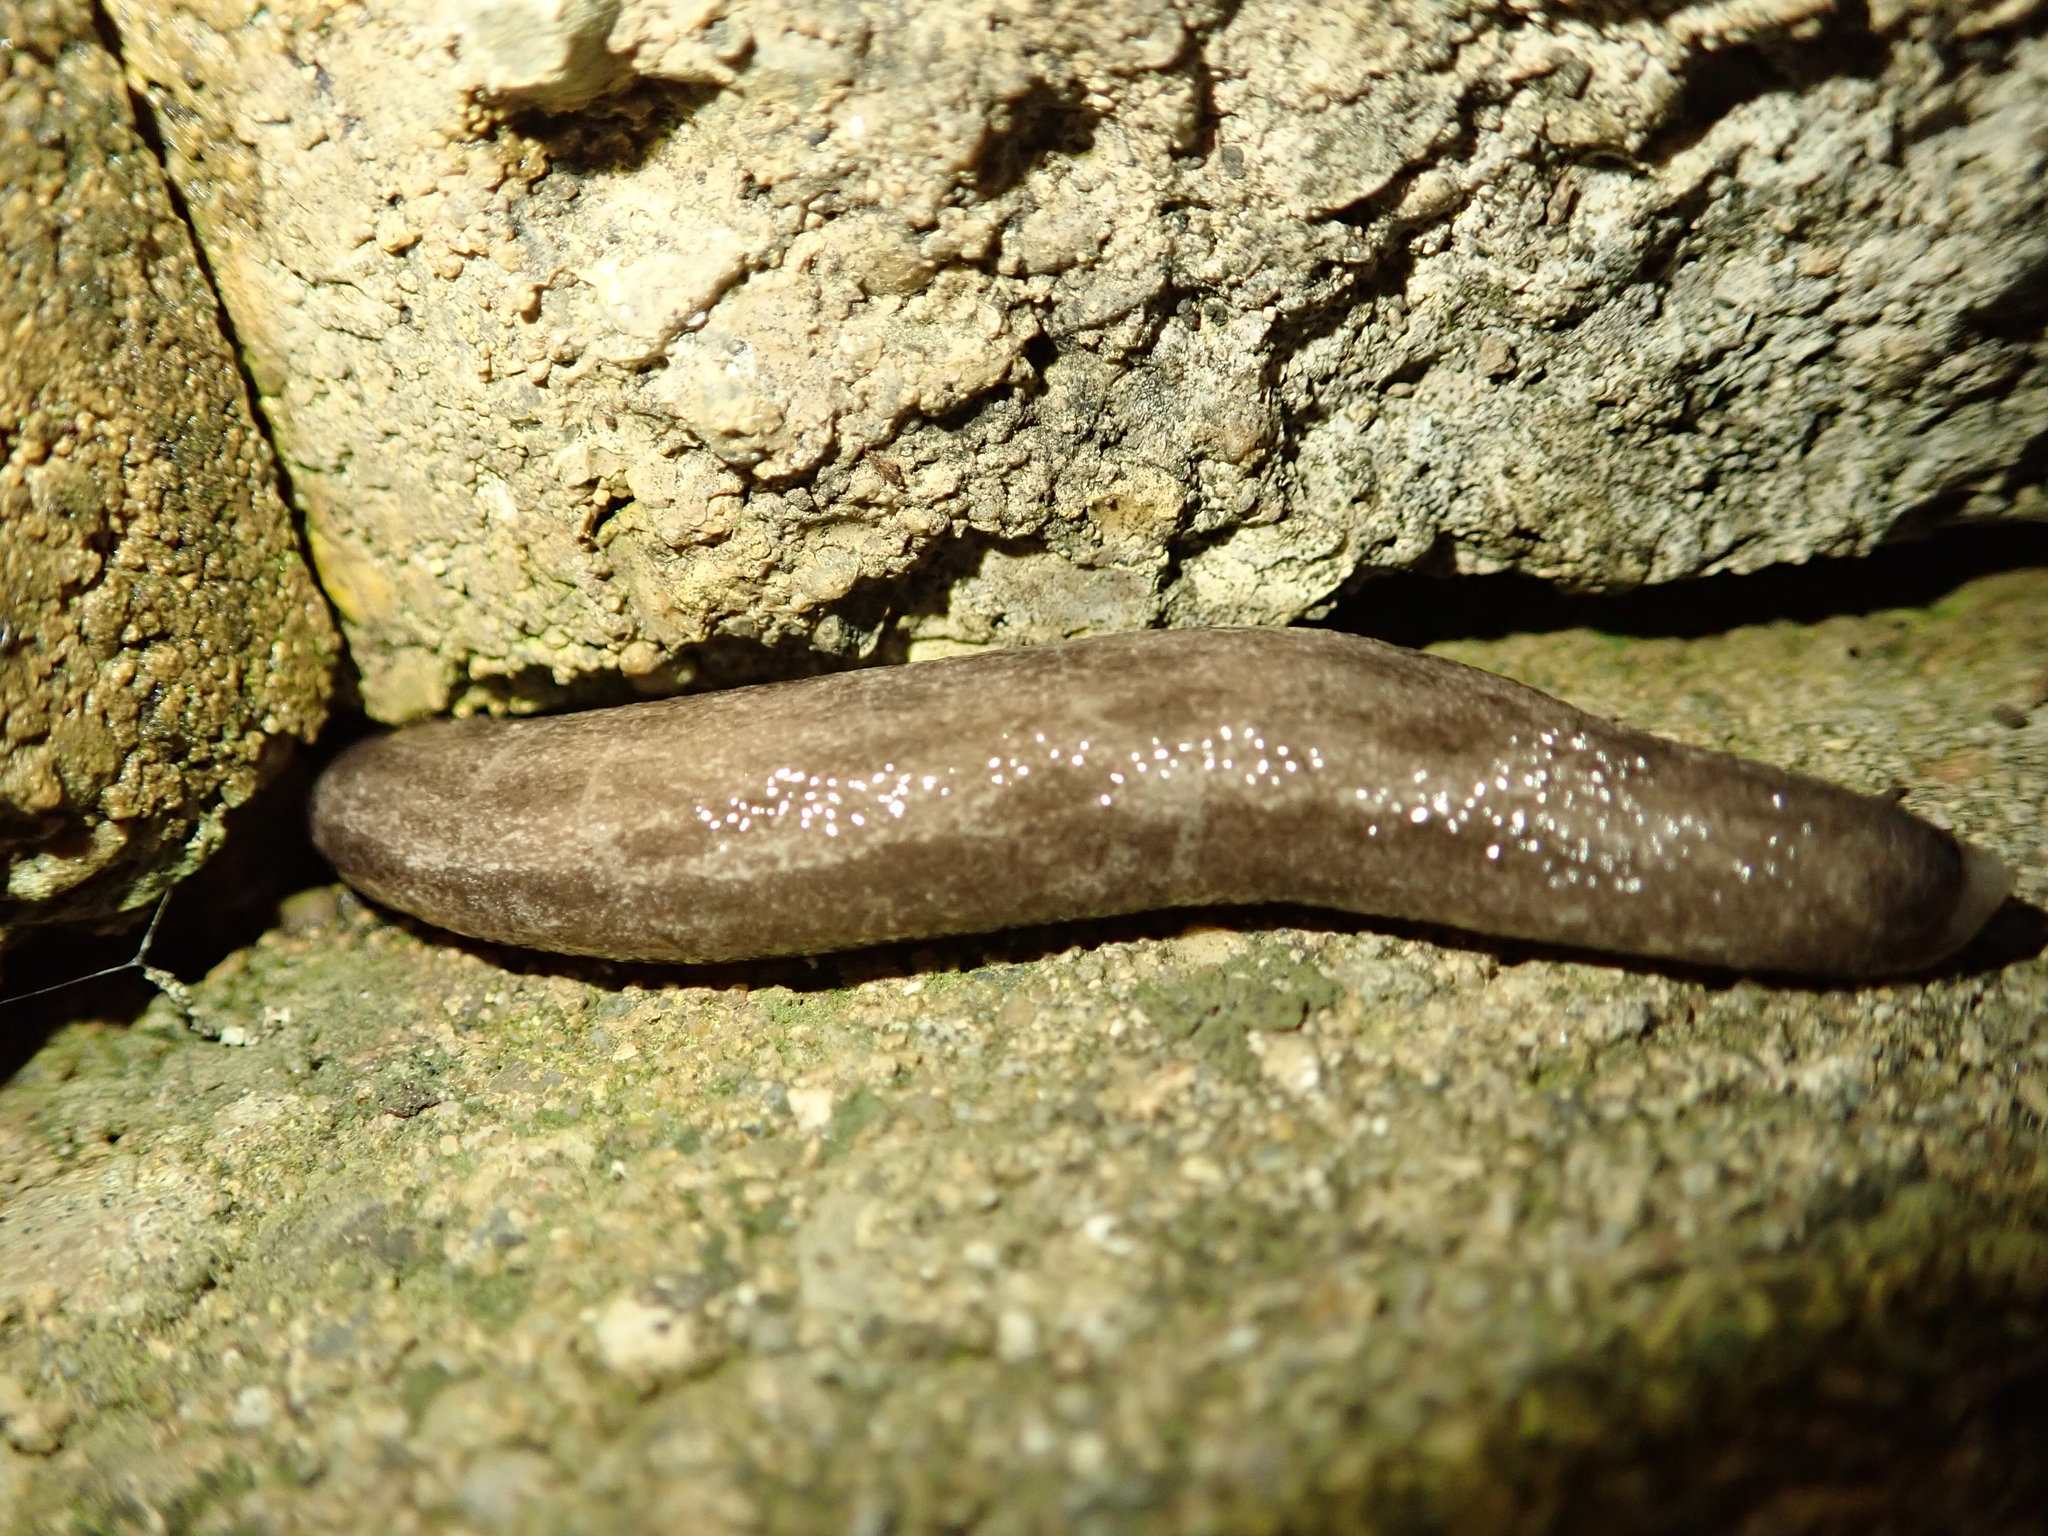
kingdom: Animalia
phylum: Mollusca
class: Gastropoda
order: Stylommatophora
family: Philomycidae
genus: Megapallifera
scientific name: Megapallifera mutabilis
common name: Changeable mantleslug
